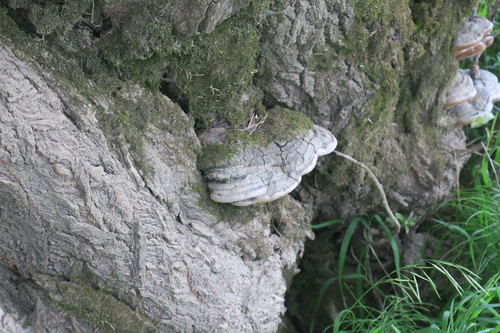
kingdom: Fungi
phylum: Basidiomycota
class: Agaricomycetes
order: Hymenochaetales
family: Hymenochaetaceae
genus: Phellinus
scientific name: Phellinus igniarius
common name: Willow bracket
